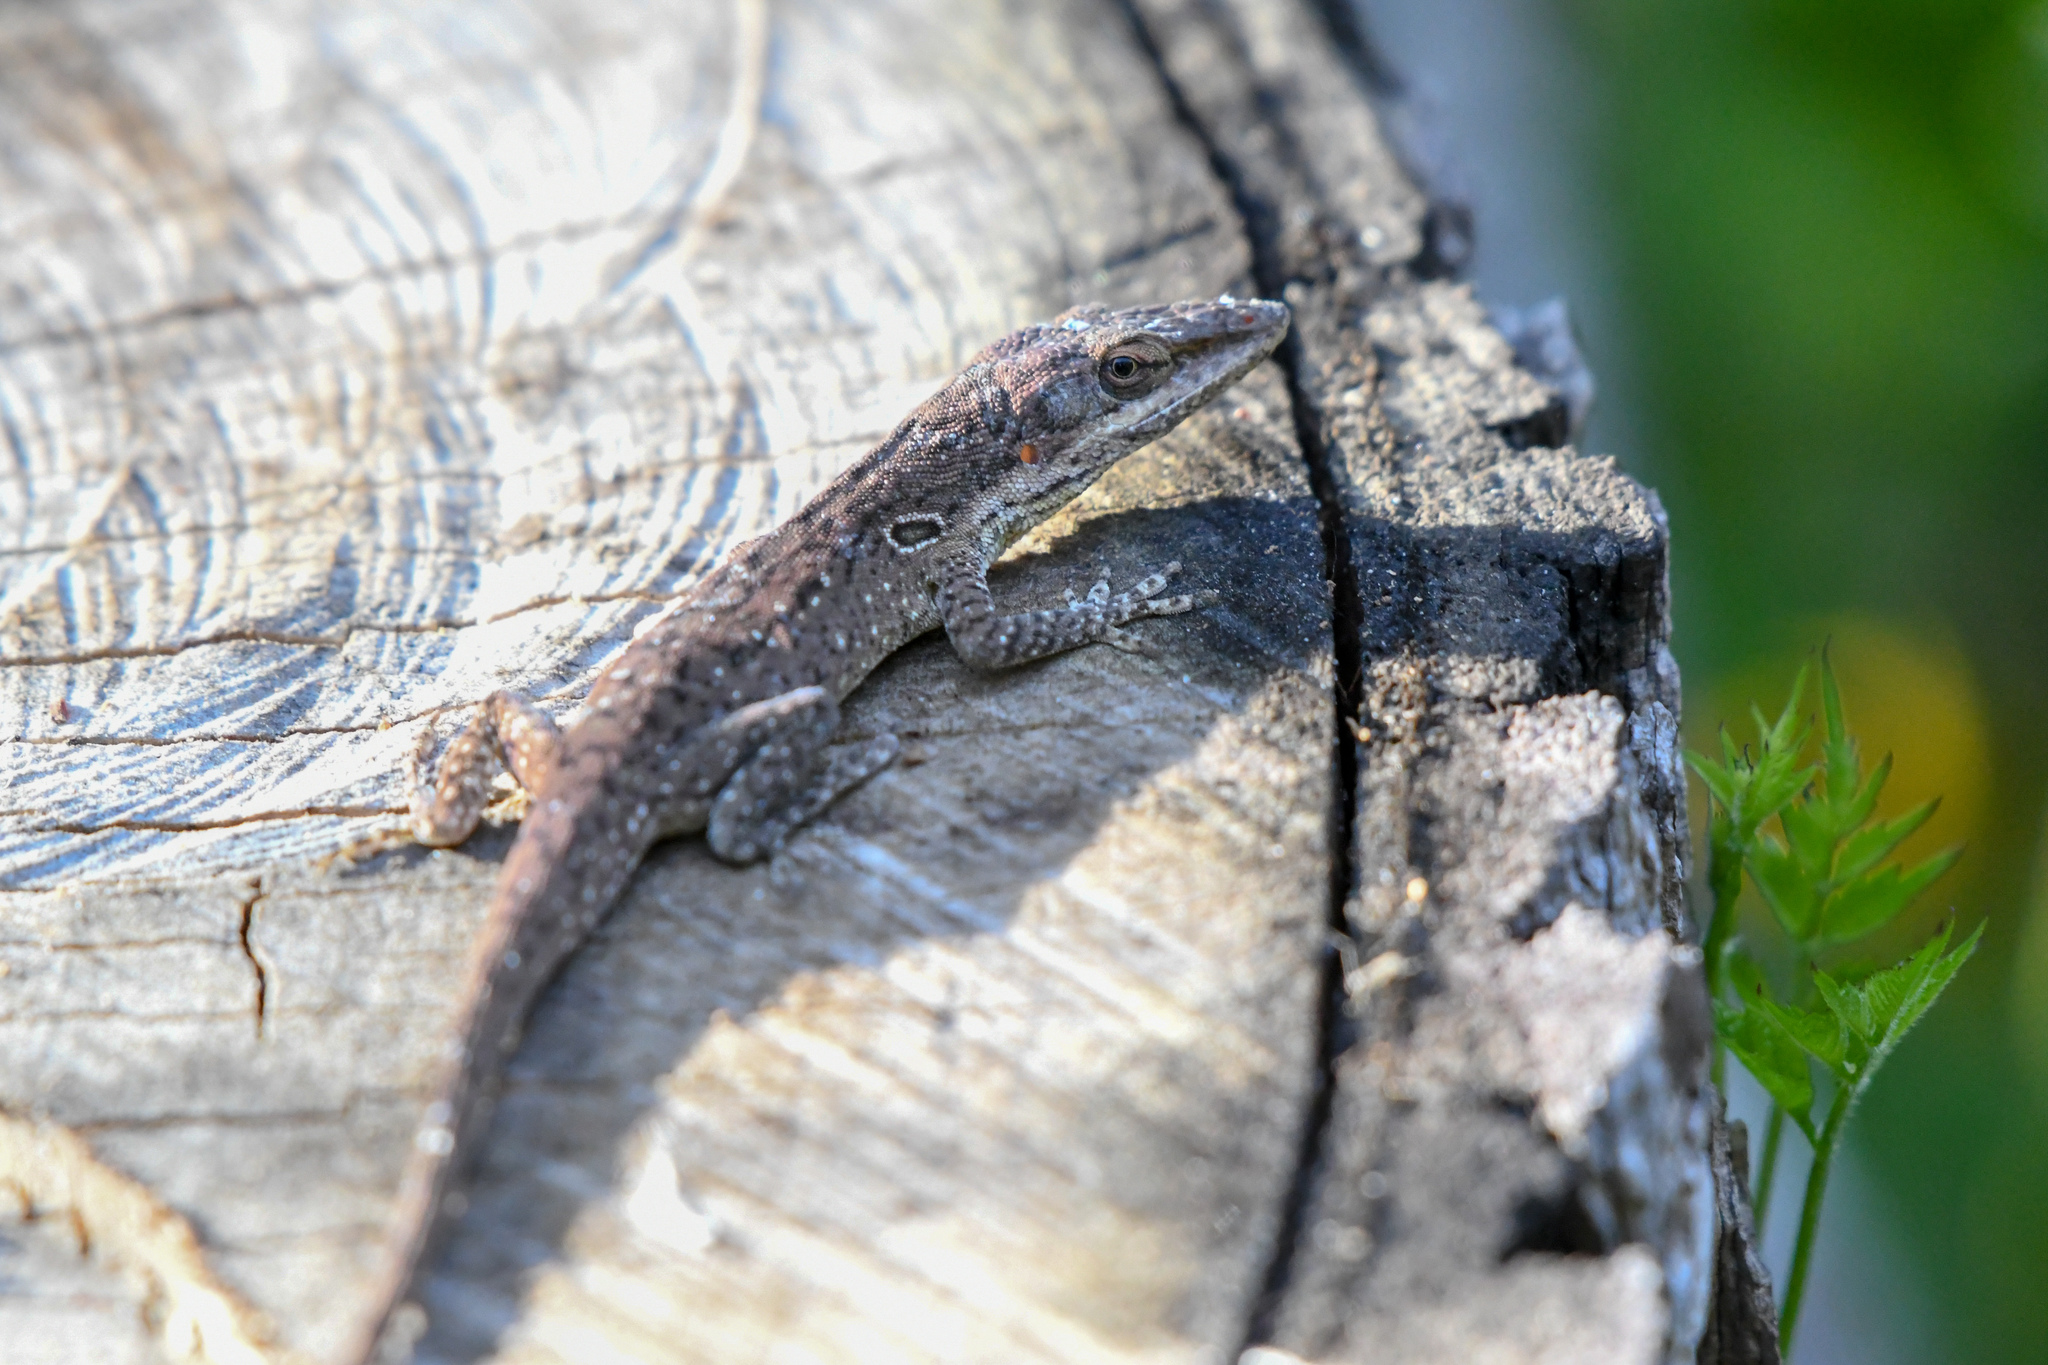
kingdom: Animalia
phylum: Chordata
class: Squamata
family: Dactyloidae
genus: Anolis
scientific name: Anolis carolinensis
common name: Green anole
